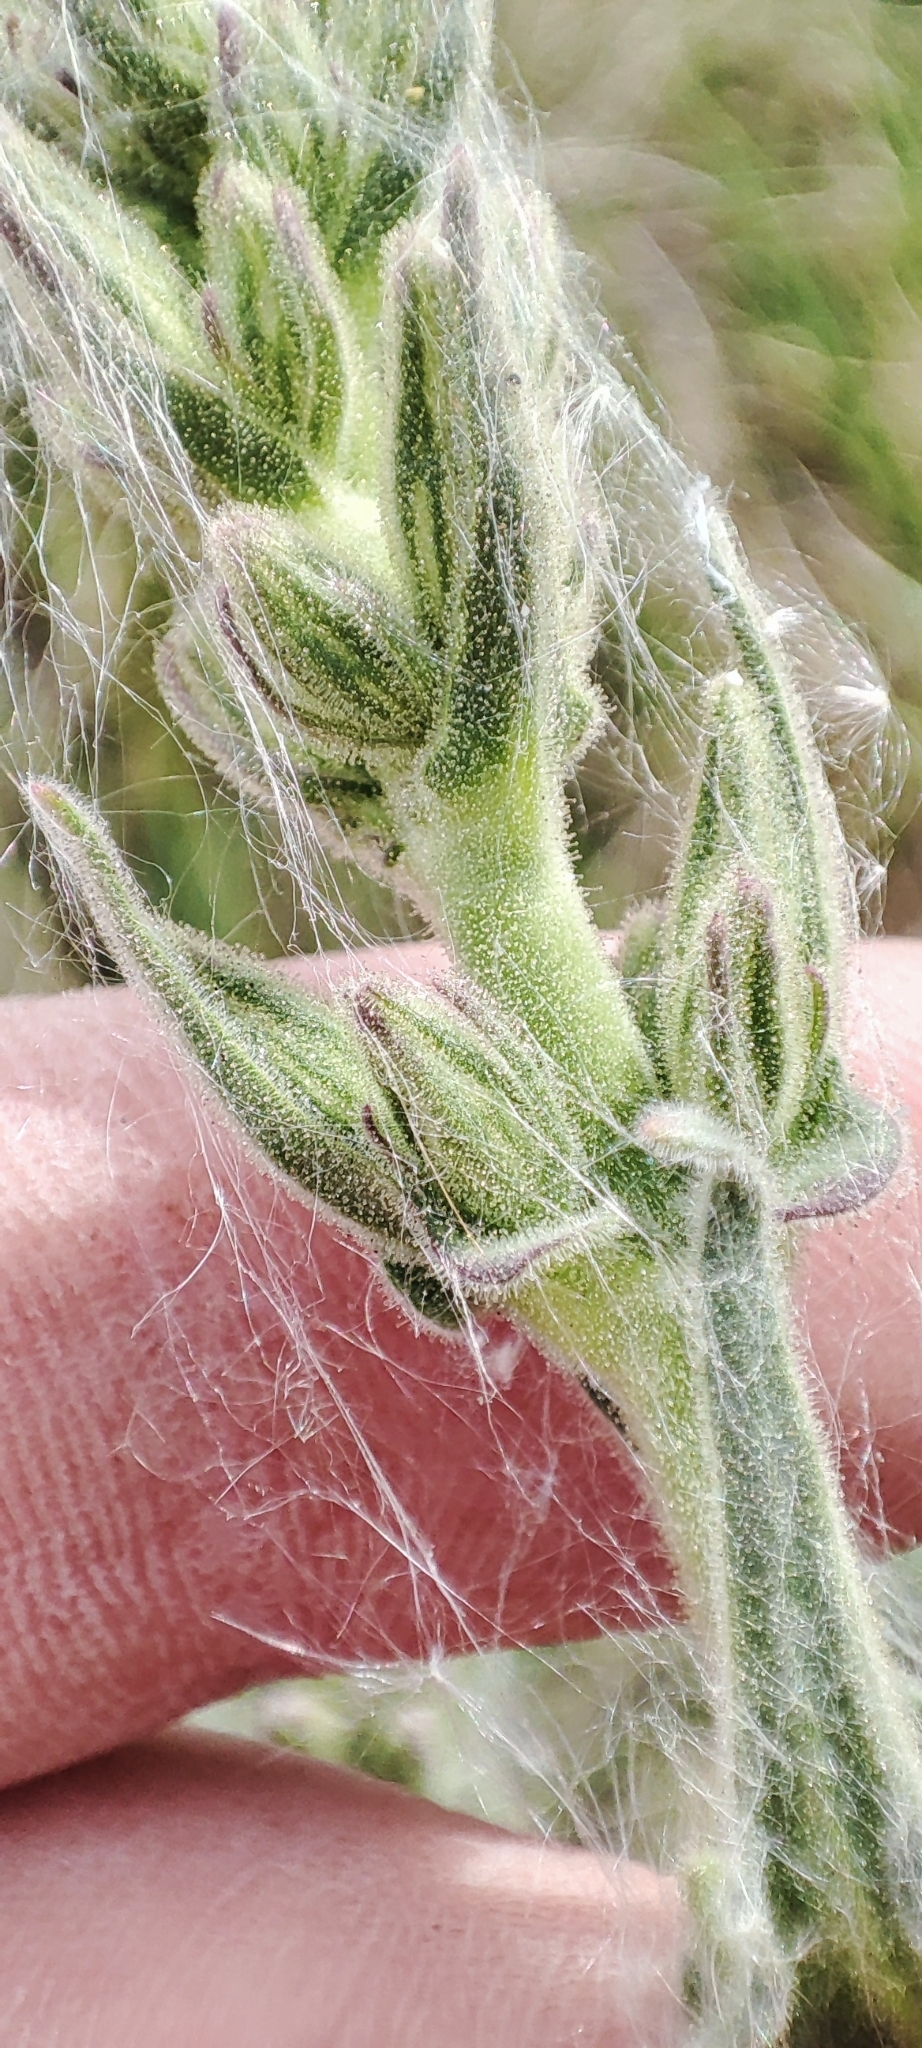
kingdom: Plantae
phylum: Tracheophyta
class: Magnoliopsida
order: Caryophyllales
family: Caryophyllaceae
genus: Silene
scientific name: Silene viscosa
